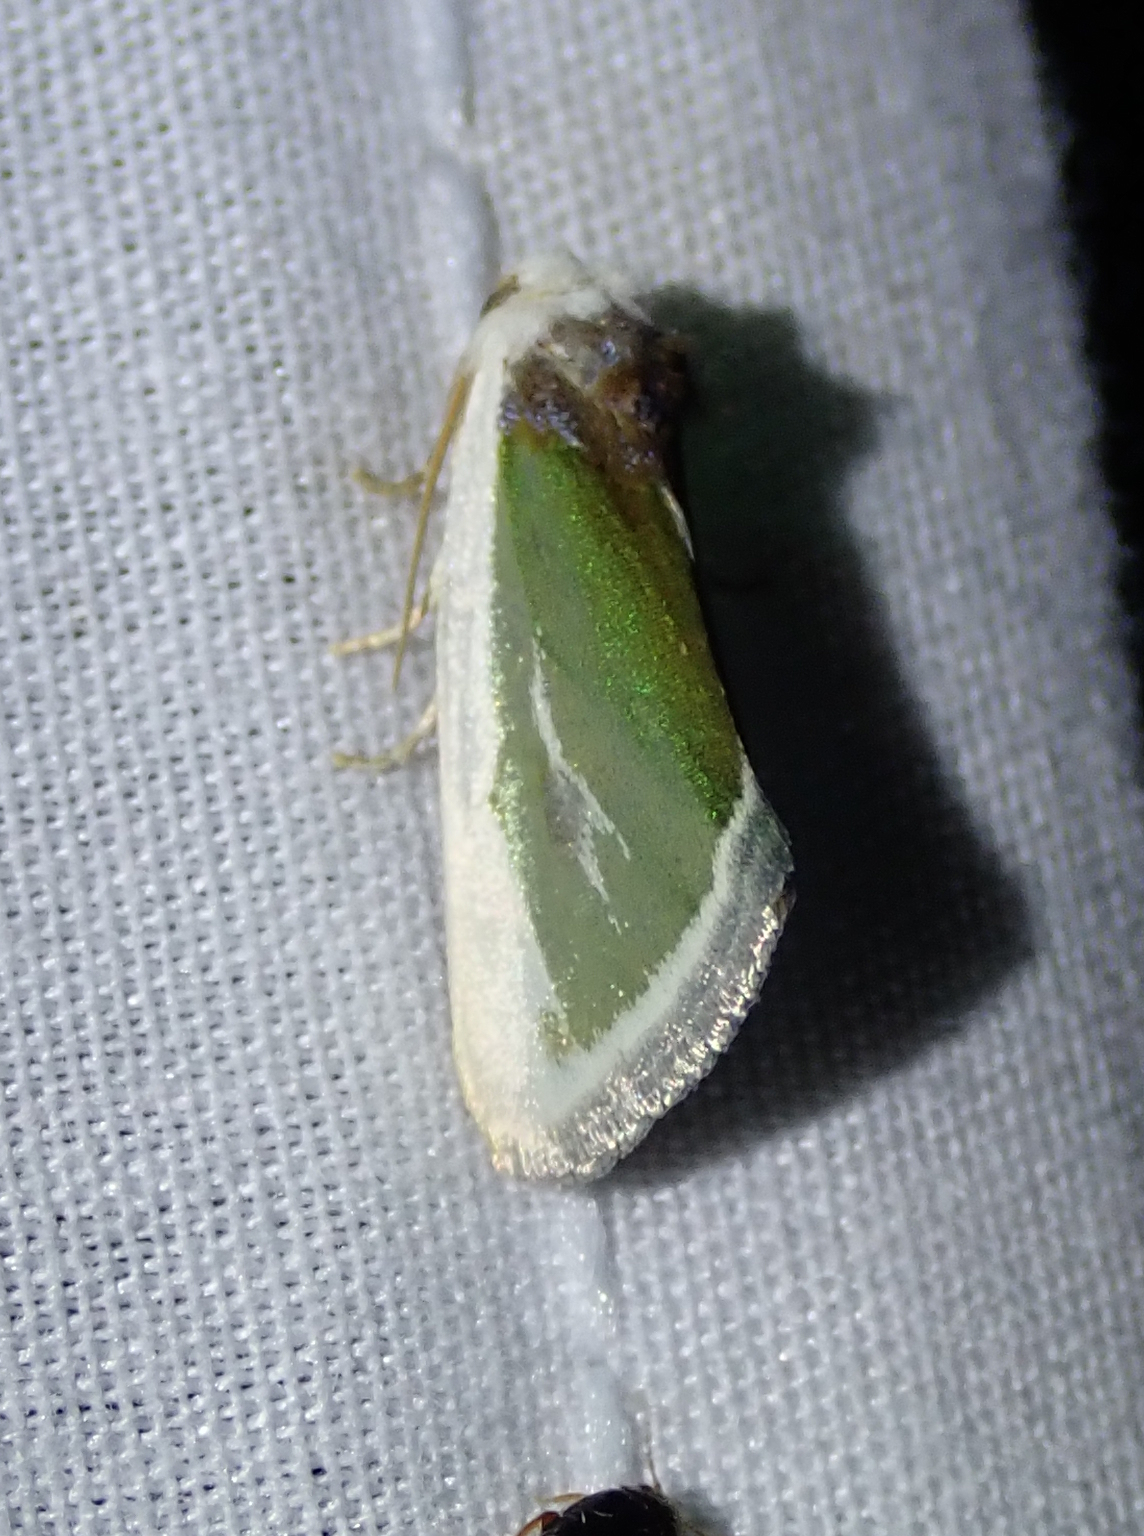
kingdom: Animalia
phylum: Arthropoda
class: Insecta
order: Lepidoptera
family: Noctuidae
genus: Neumoegenia
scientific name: Neumoegenia poetica
